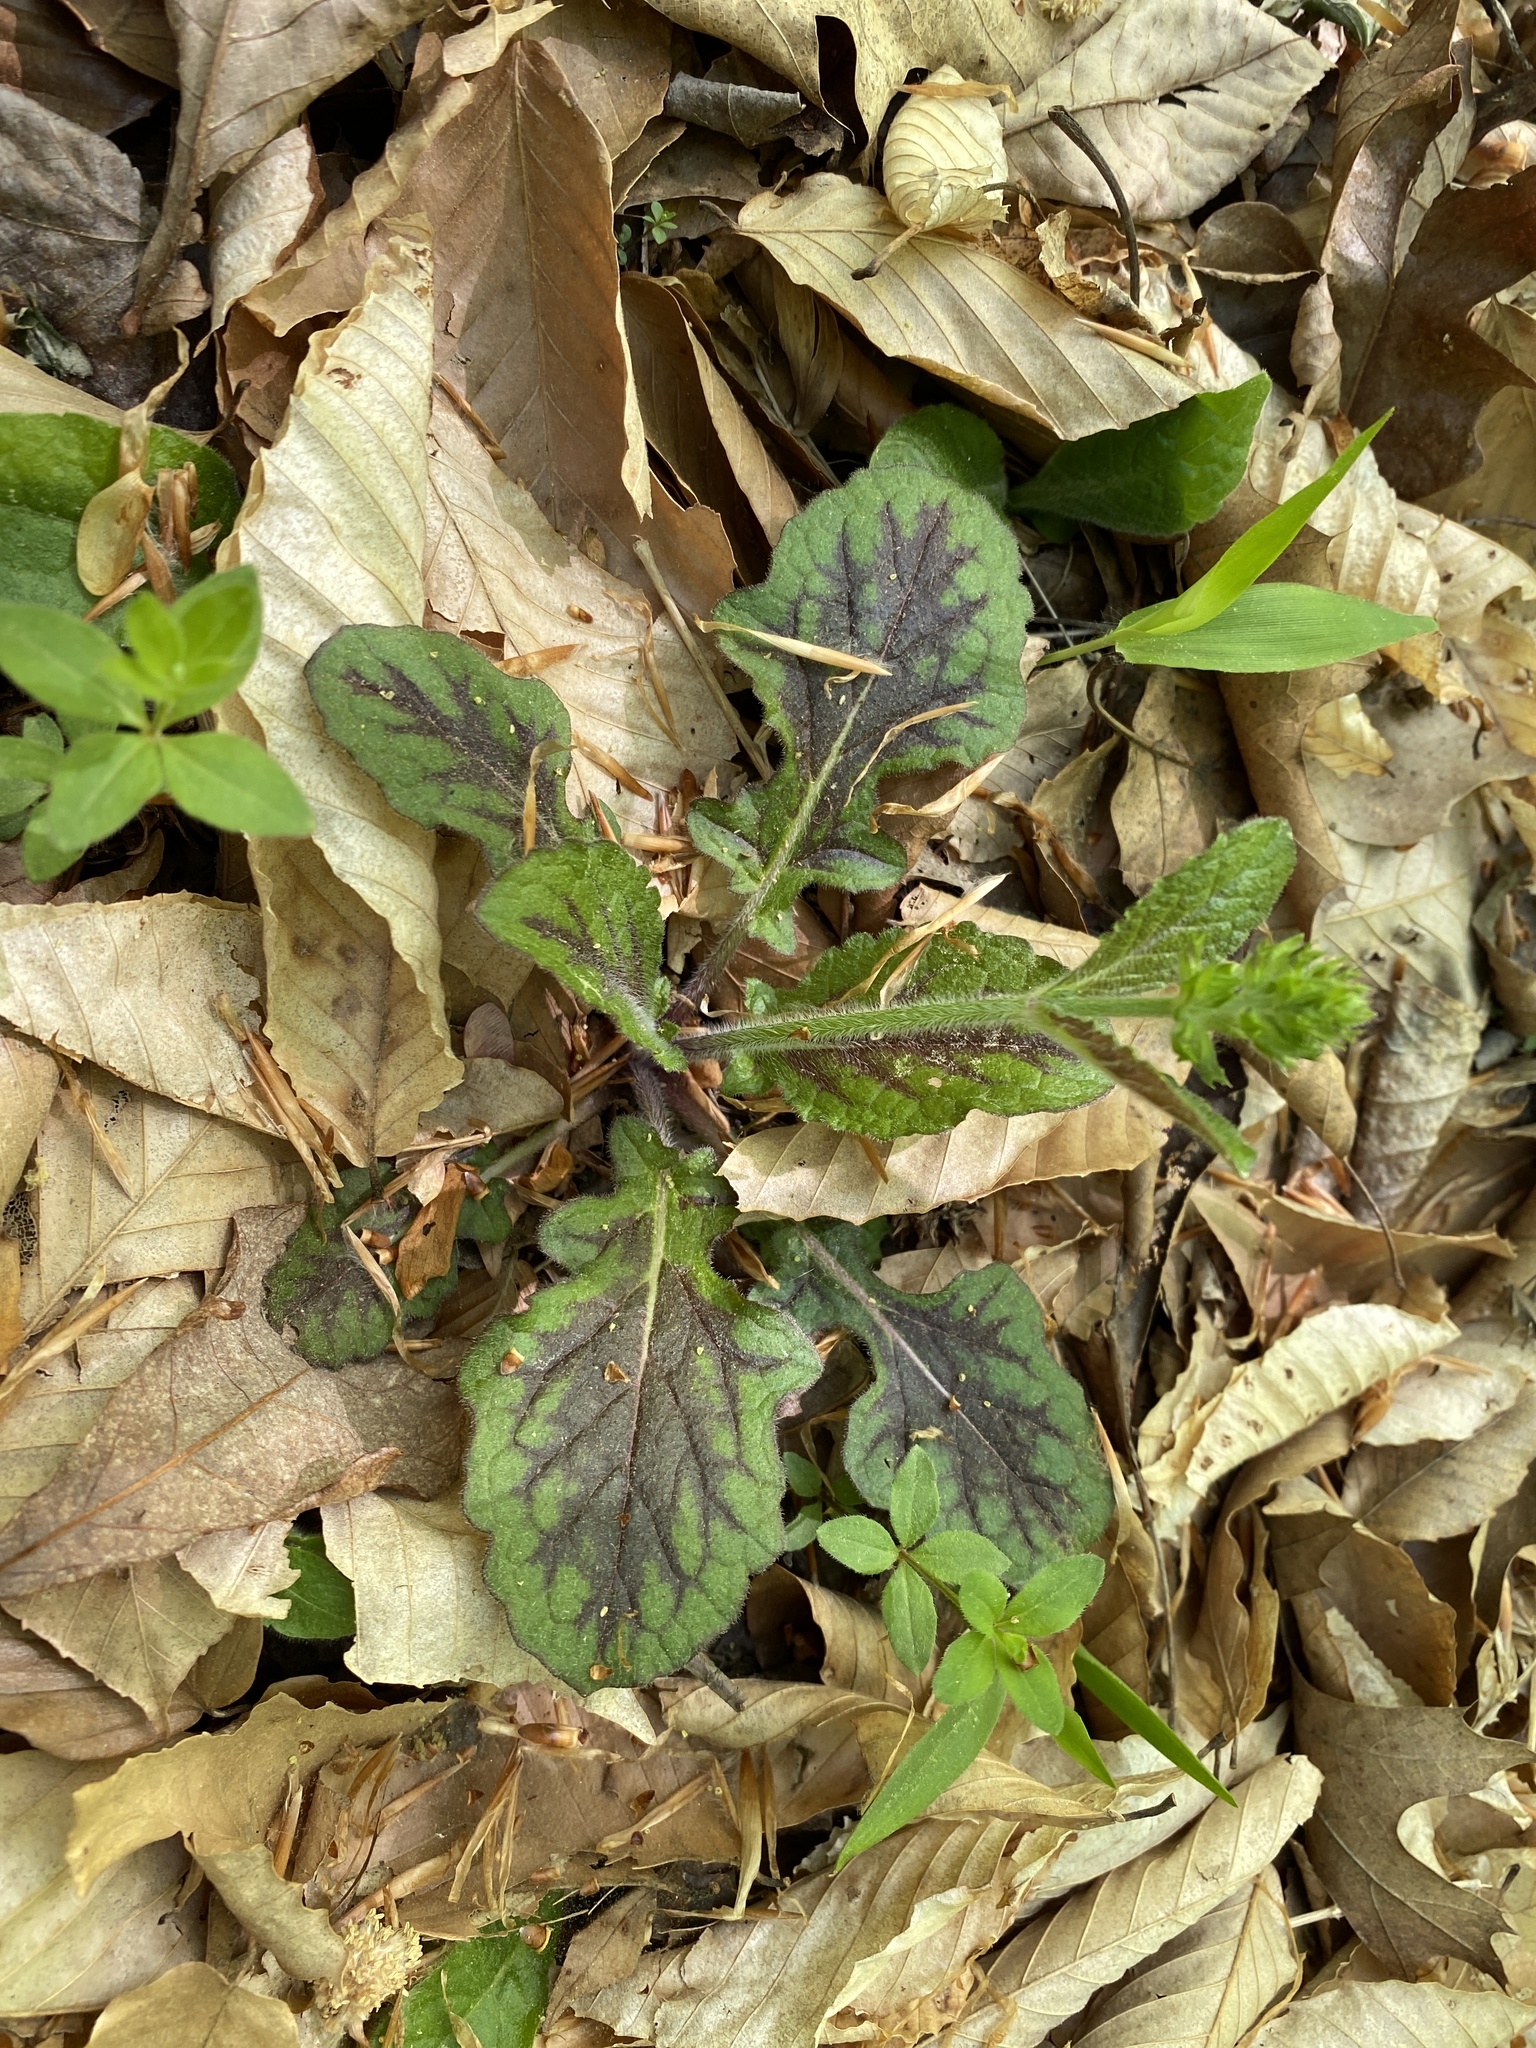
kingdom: Plantae
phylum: Tracheophyta
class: Magnoliopsida
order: Lamiales
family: Lamiaceae
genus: Salvia
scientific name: Salvia lyrata
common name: Cancerweed
